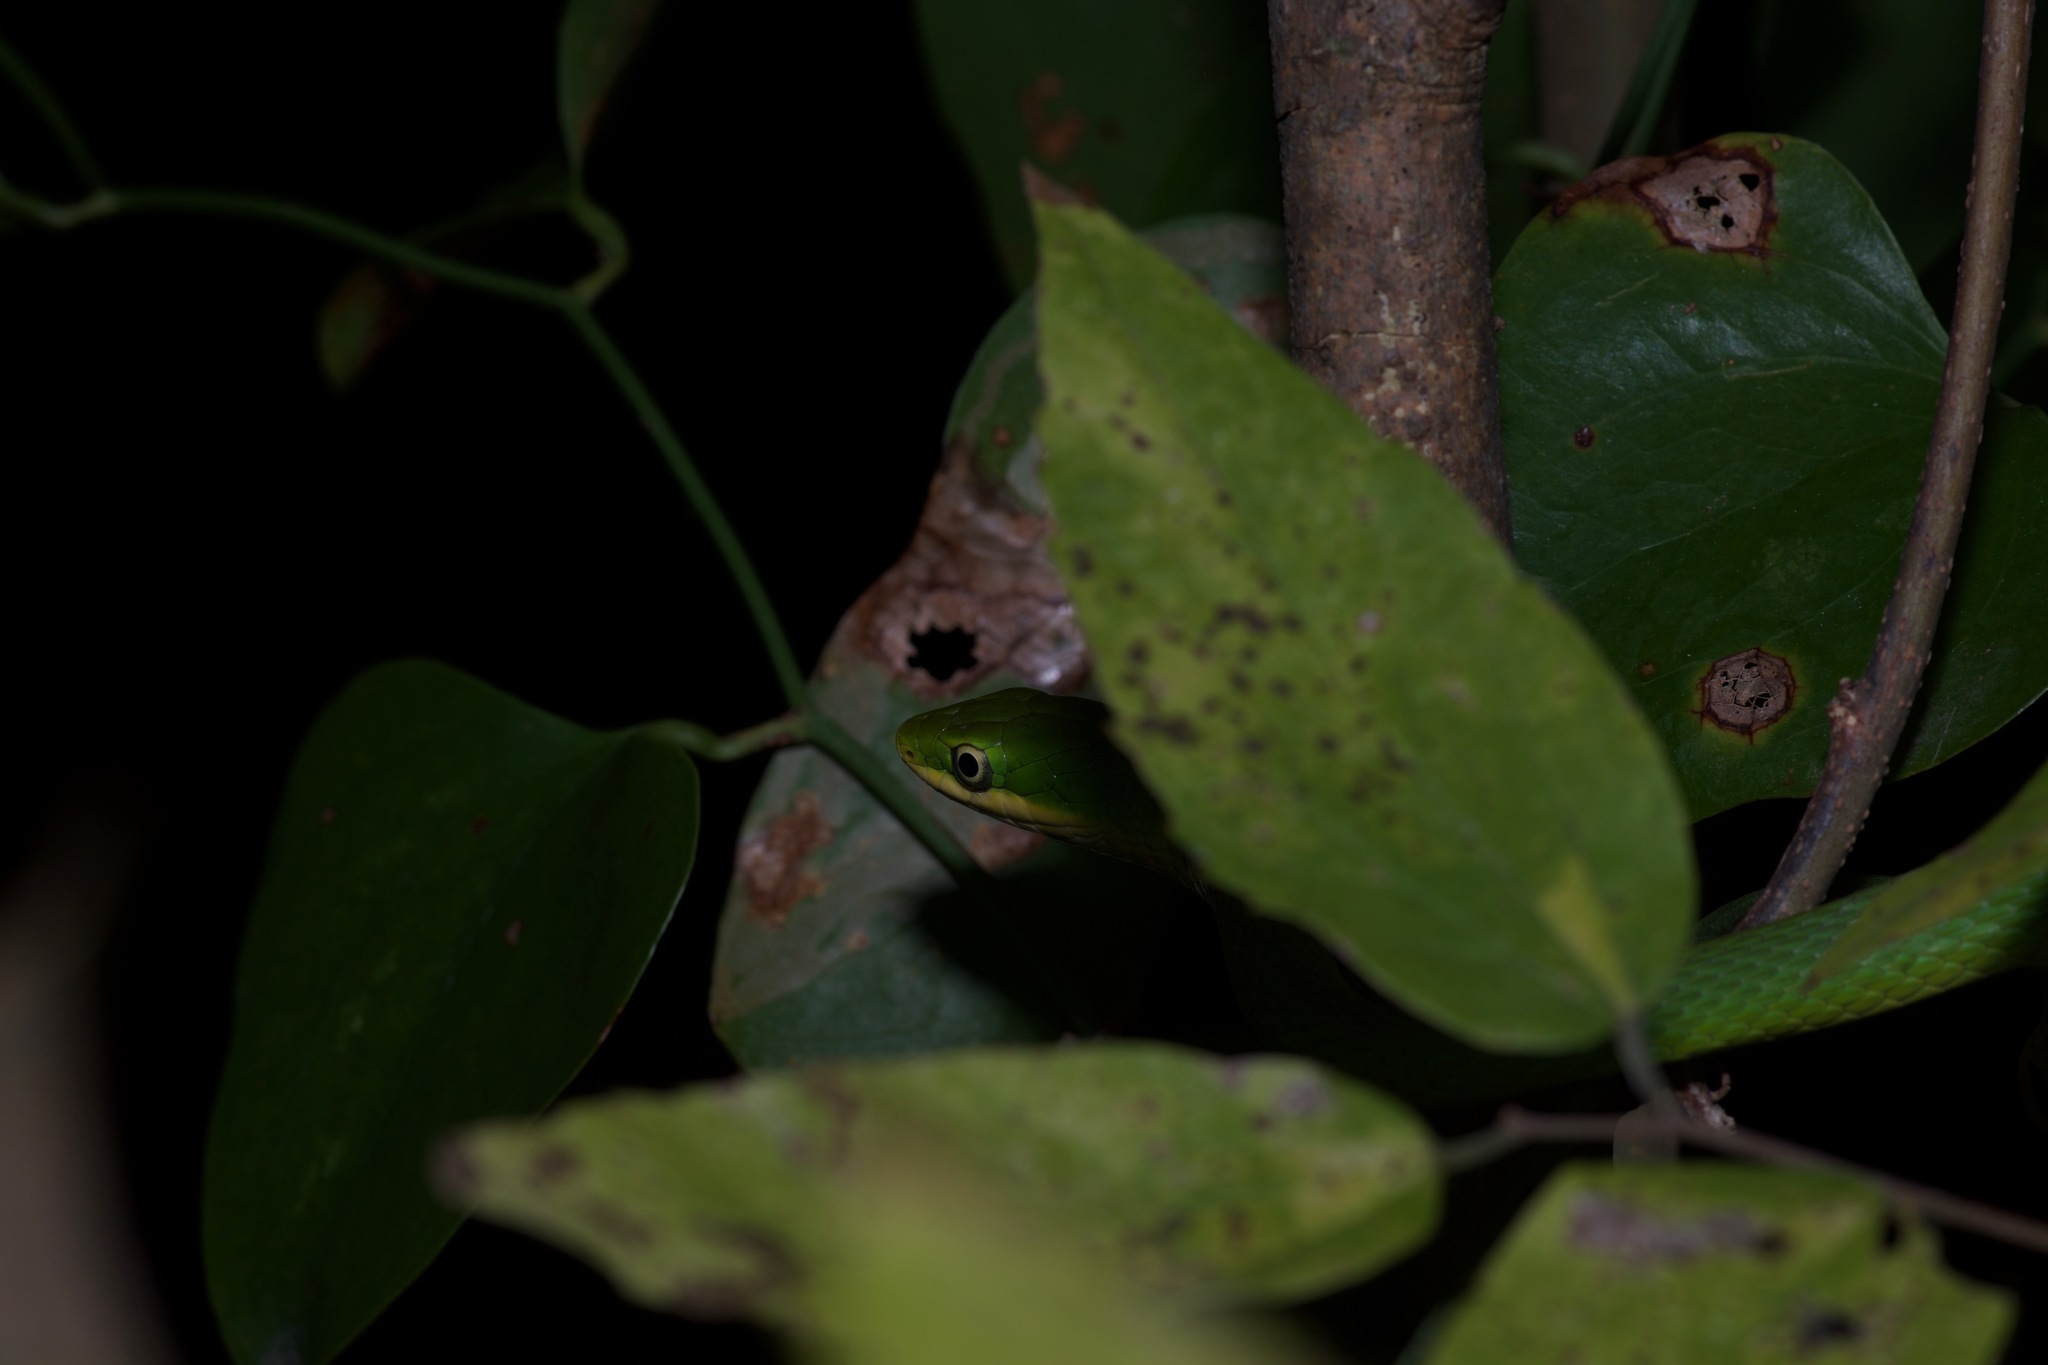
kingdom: Animalia
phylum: Chordata
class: Squamata
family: Colubridae
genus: Opheodrys
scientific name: Opheodrys aestivus
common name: Rough greensnake
